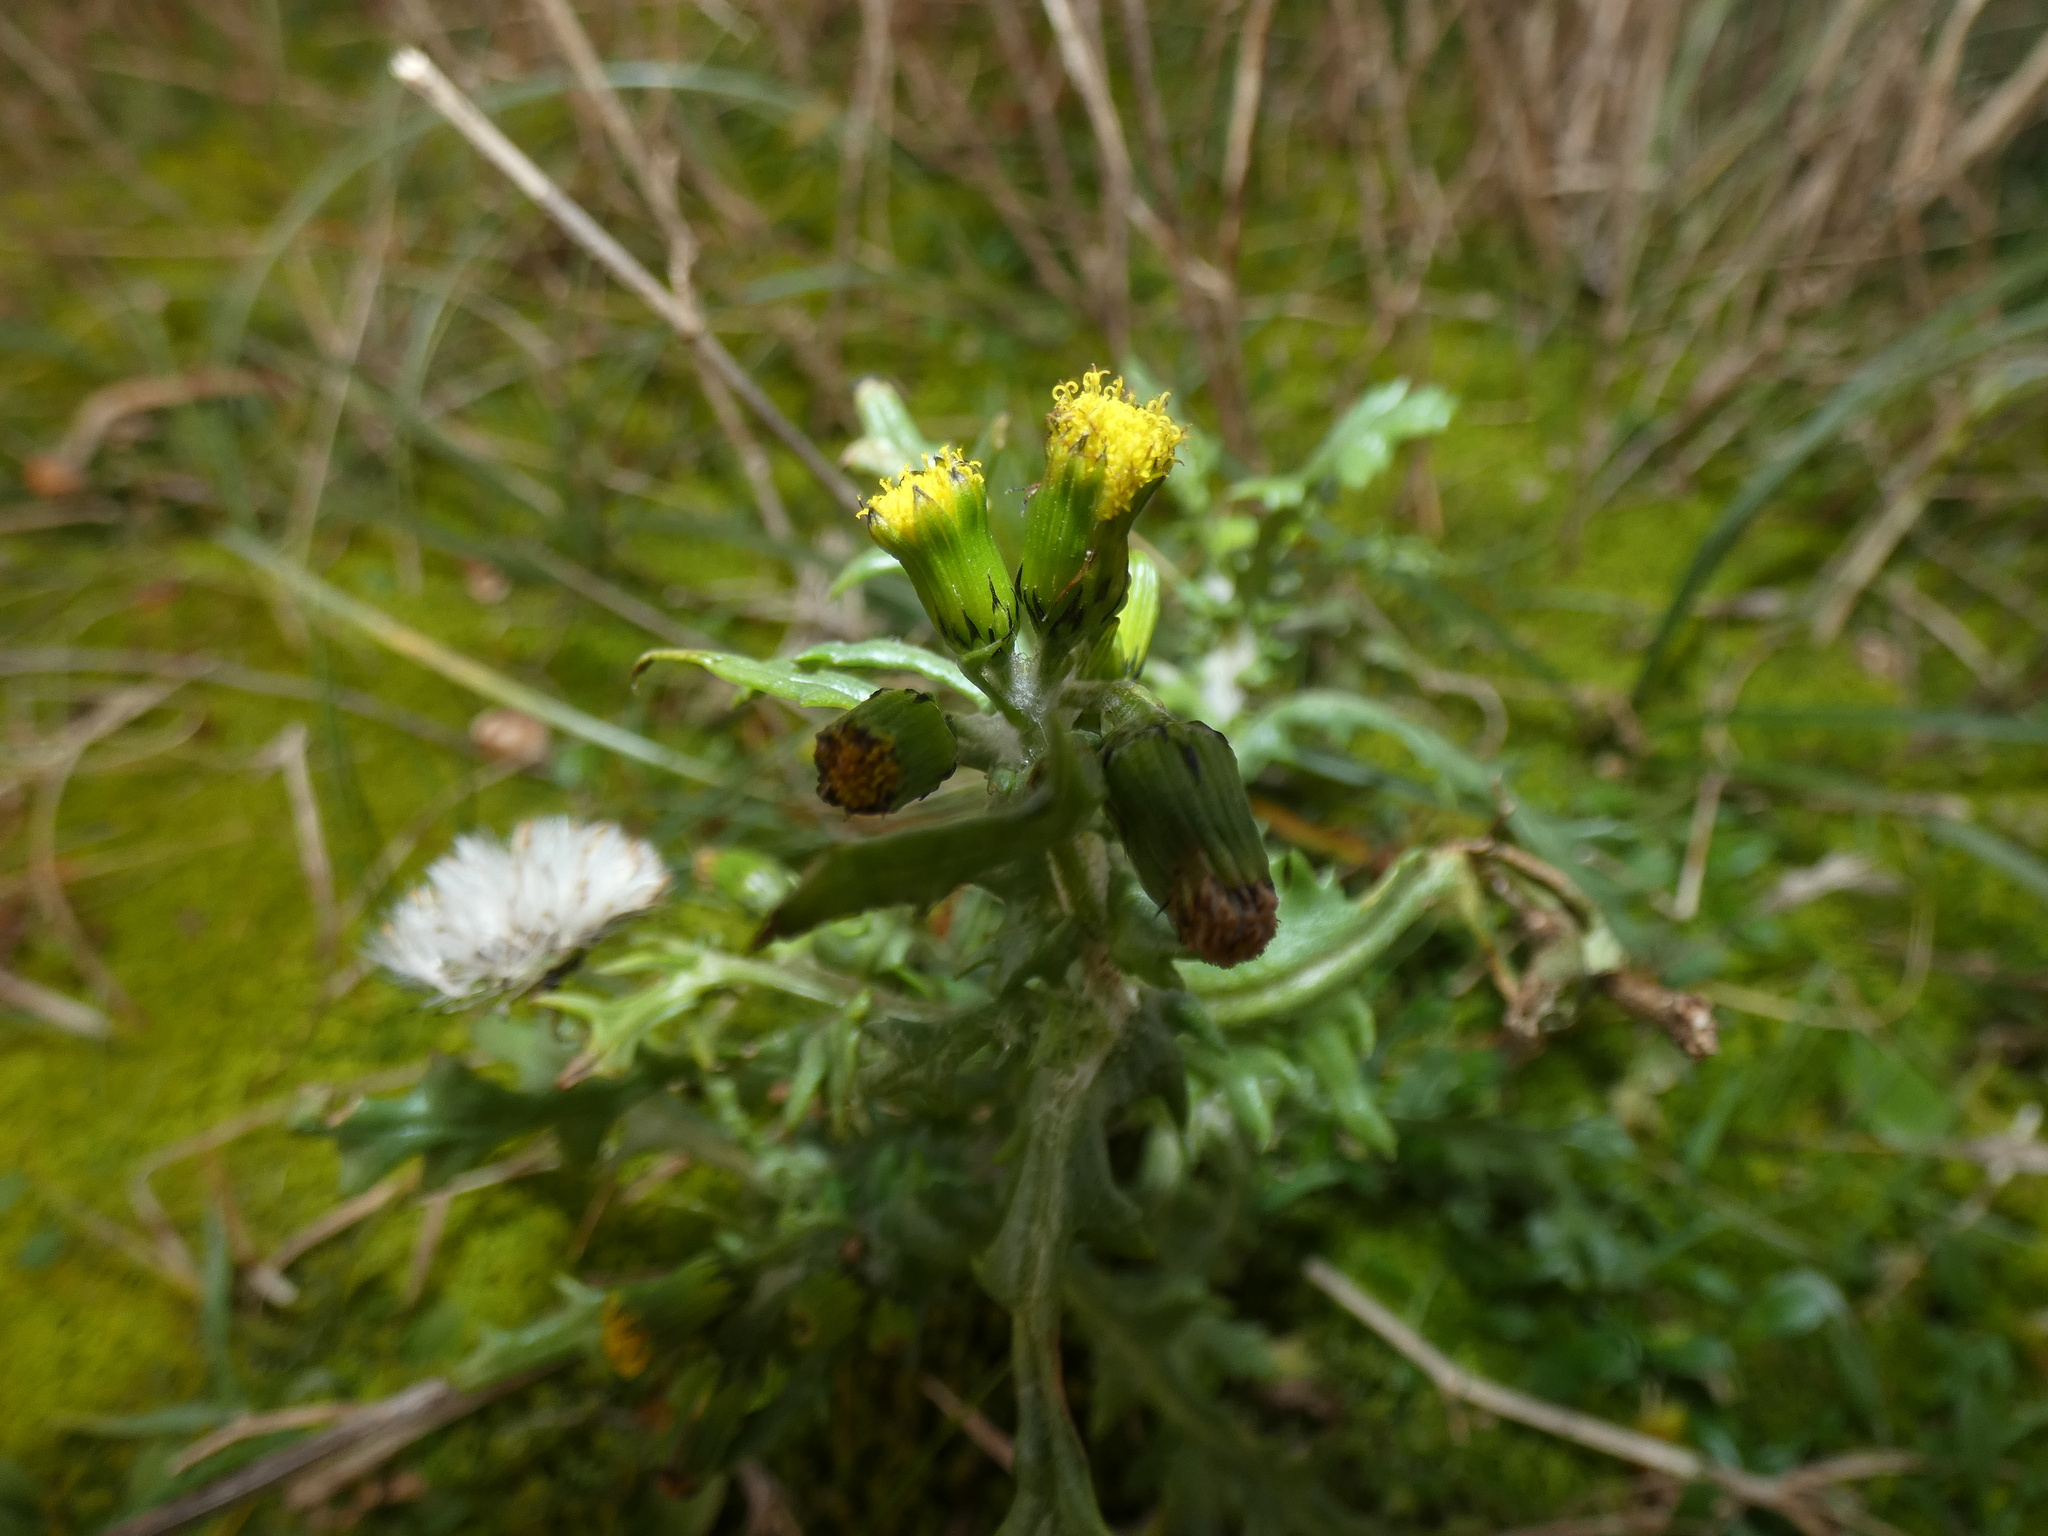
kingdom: Plantae
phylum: Tracheophyta
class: Magnoliopsida
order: Asterales
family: Asteraceae
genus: Senecio
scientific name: Senecio vulgaris
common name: Old-man-in-the-spring
